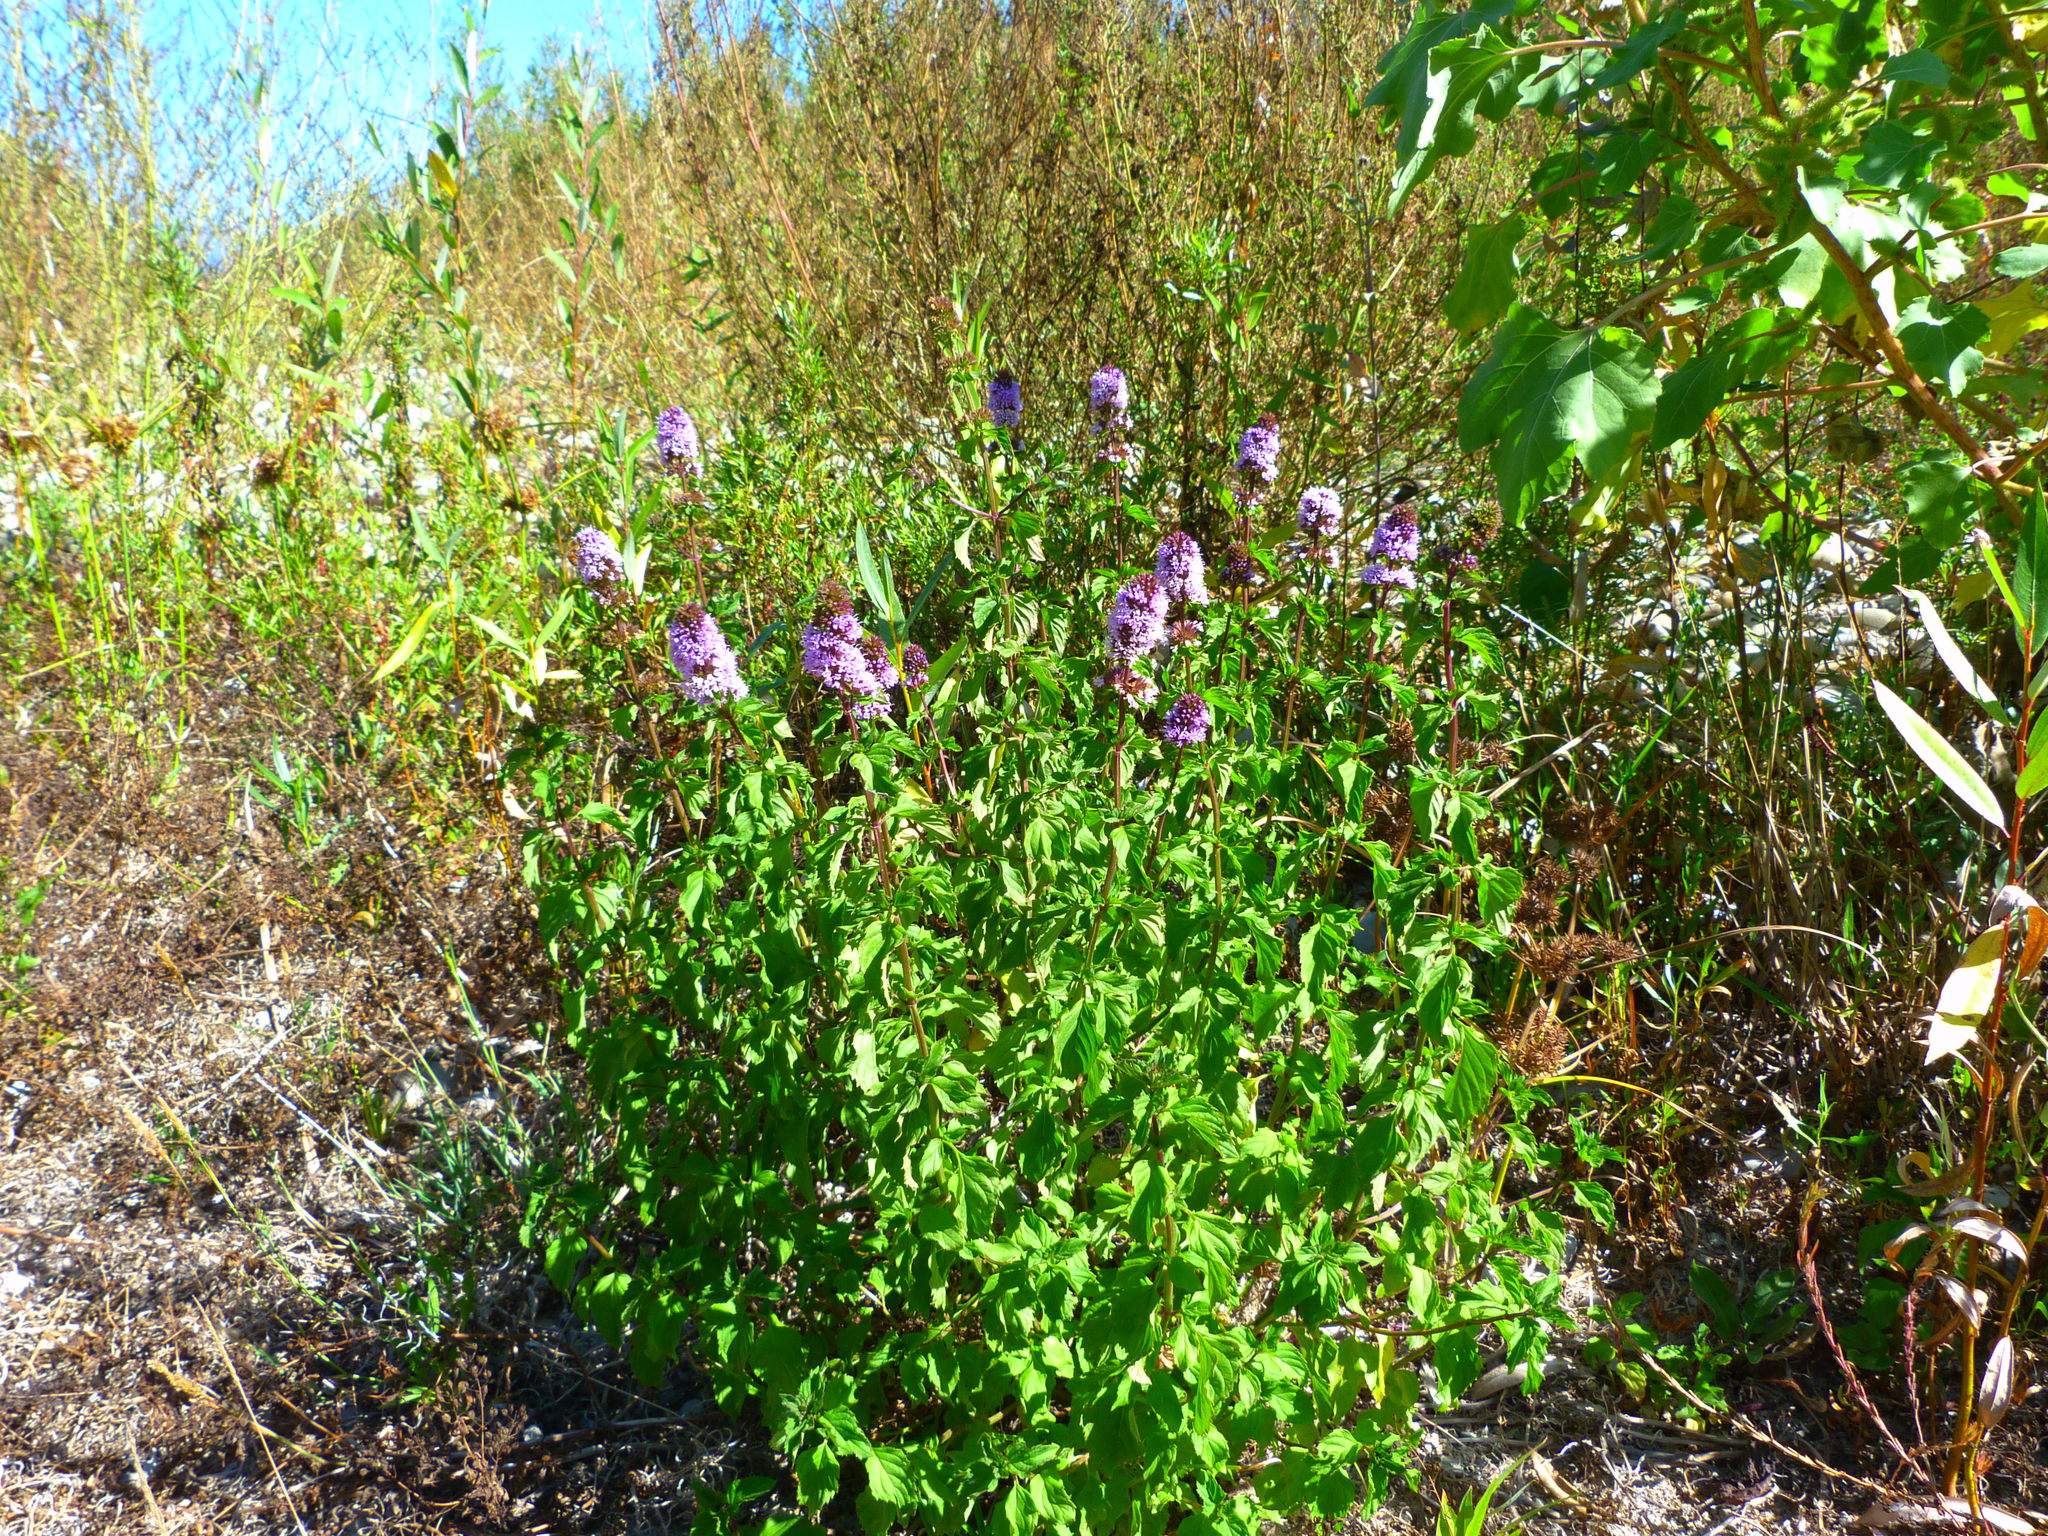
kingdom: Plantae
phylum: Tracheophyta
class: Magnoliopsida
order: Lamiales
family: Lamiaceae
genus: Mentha
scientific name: Mentha aquatica
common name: Water mint
